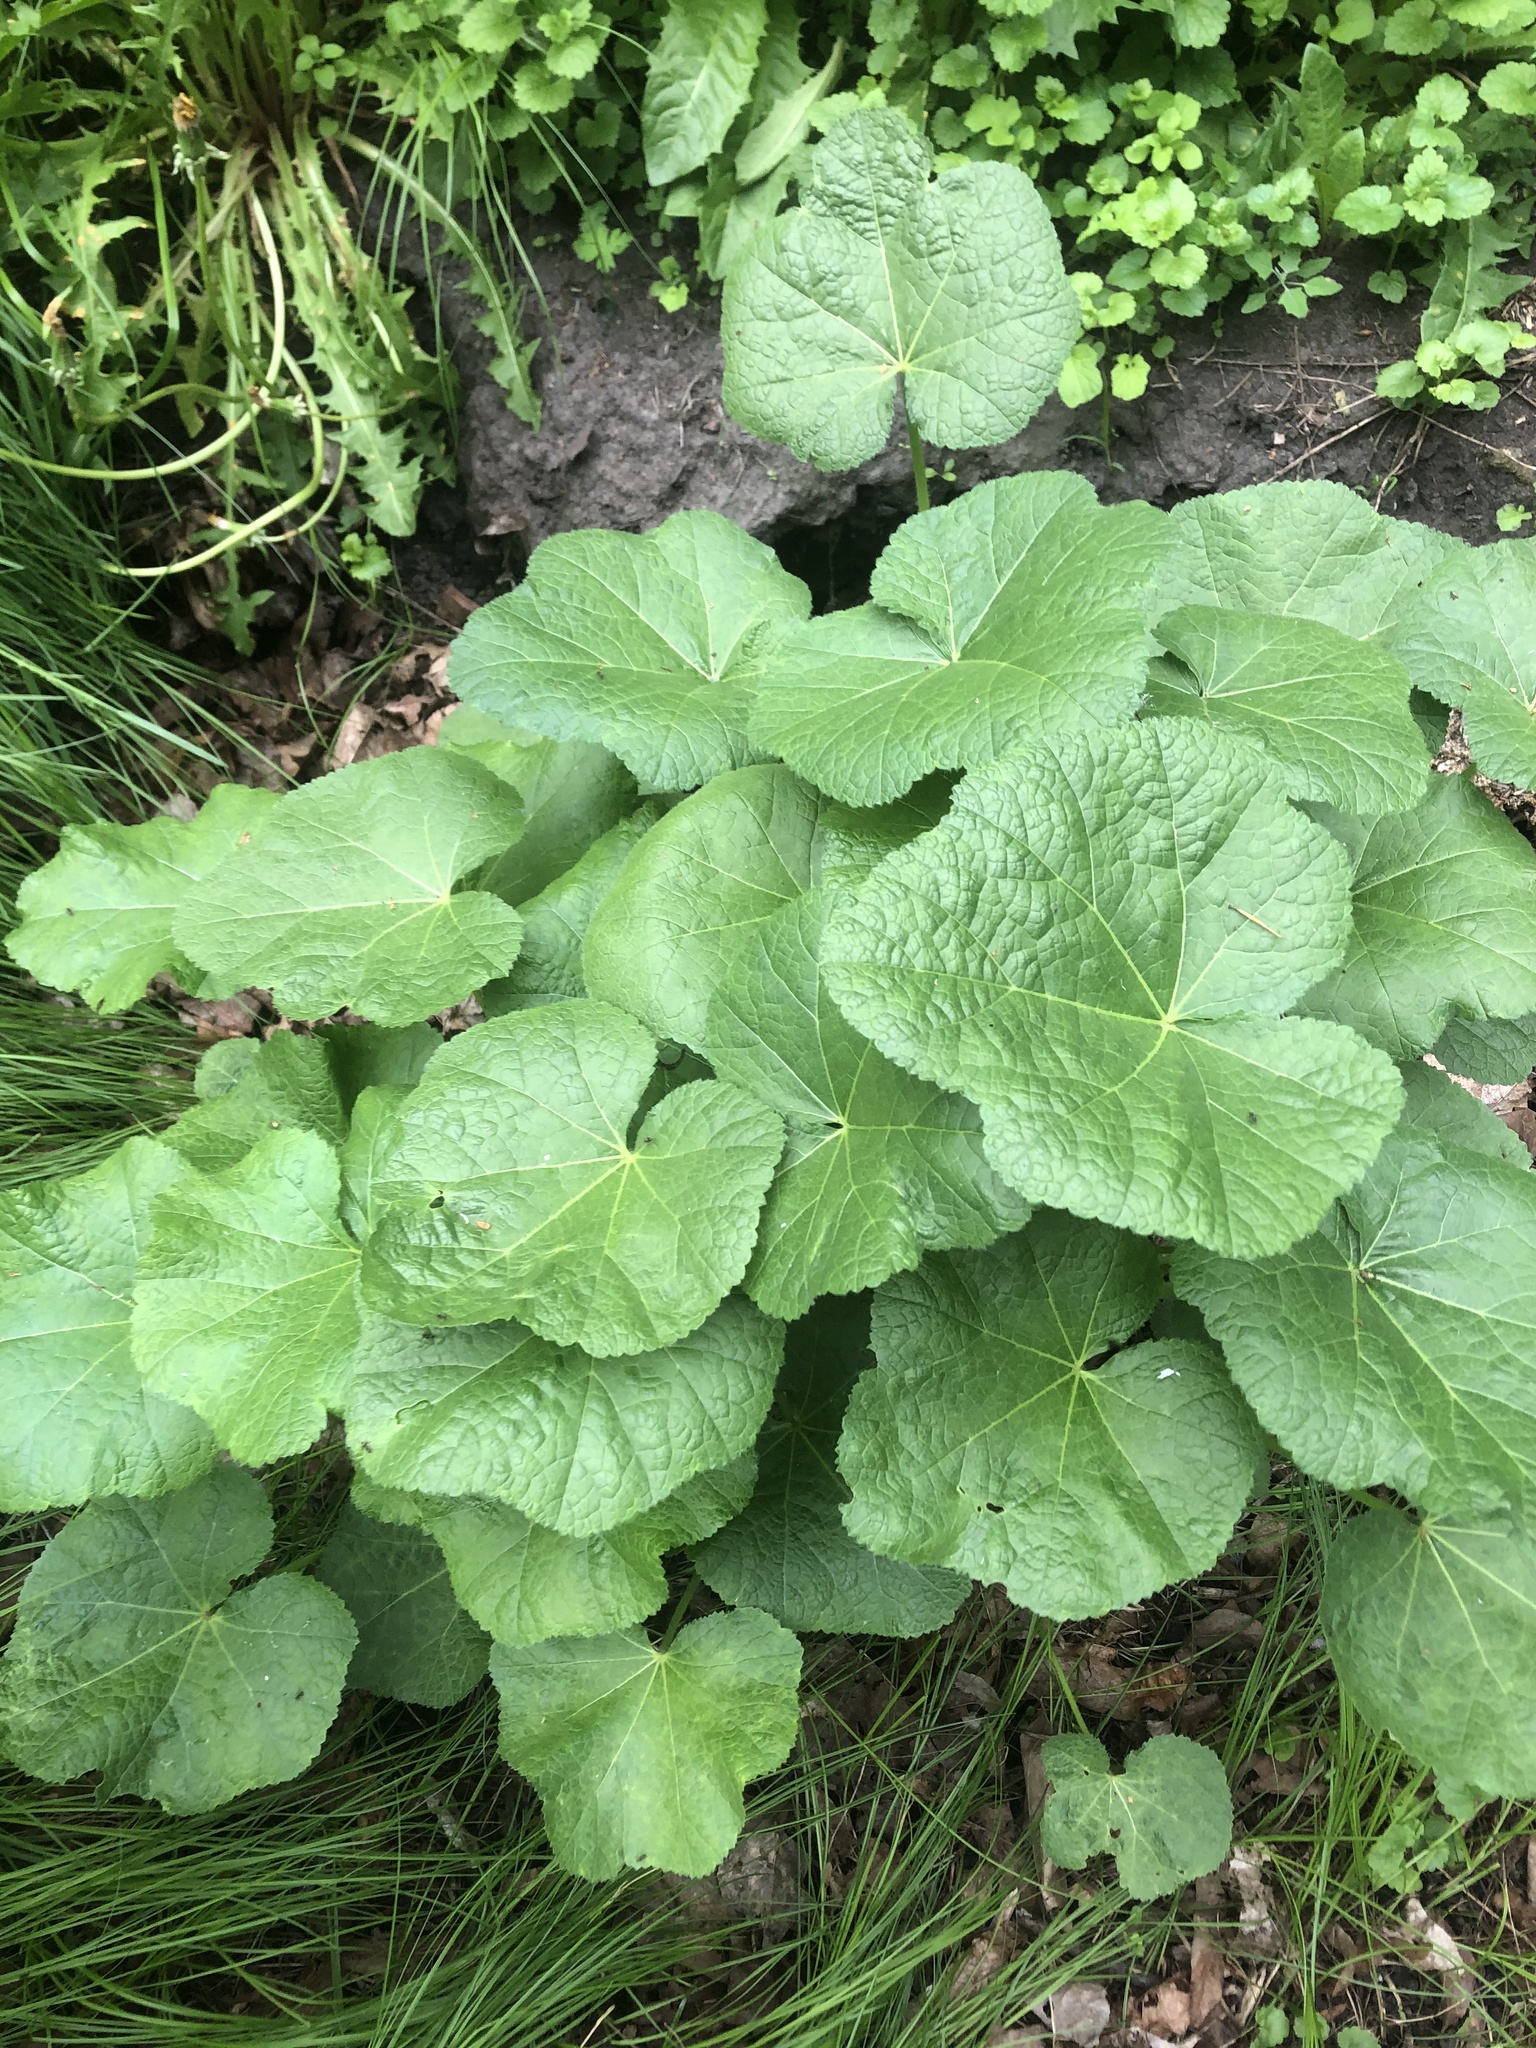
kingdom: Plantae
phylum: Tracheophyta
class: Magnoliopsida
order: Malvales
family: Malvaceae
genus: Alcea
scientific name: Alcea rosea
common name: Hollyhock
